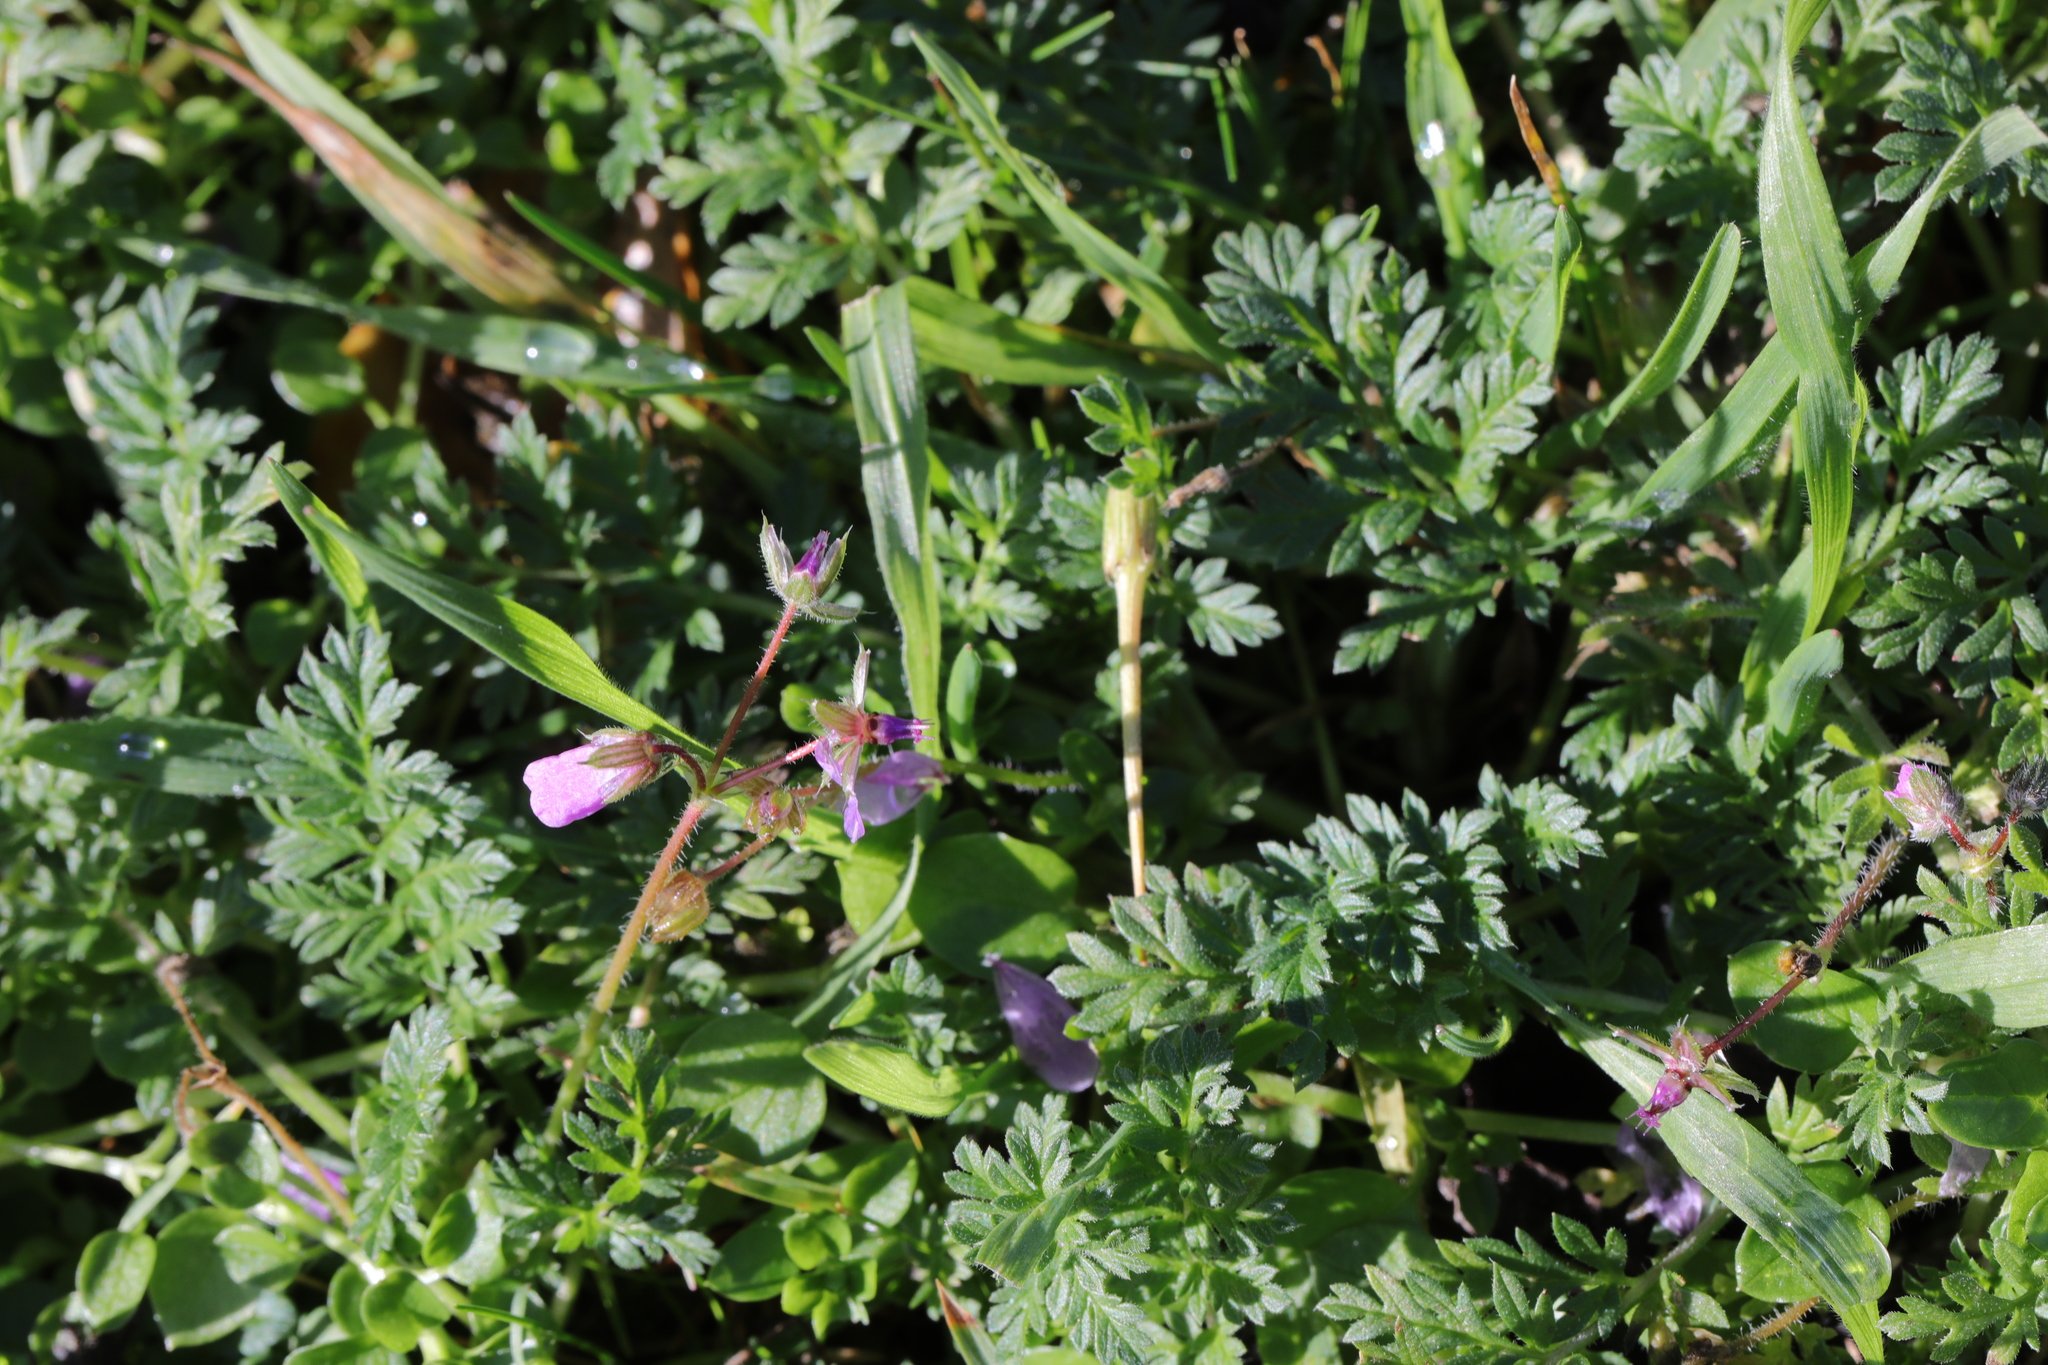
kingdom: Plantae
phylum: Tracheophyta
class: Magnoliopsida
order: Geraniales
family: Geraniaceae
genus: Erodium
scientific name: Erodium cicutarium
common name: Common stork's-bill
